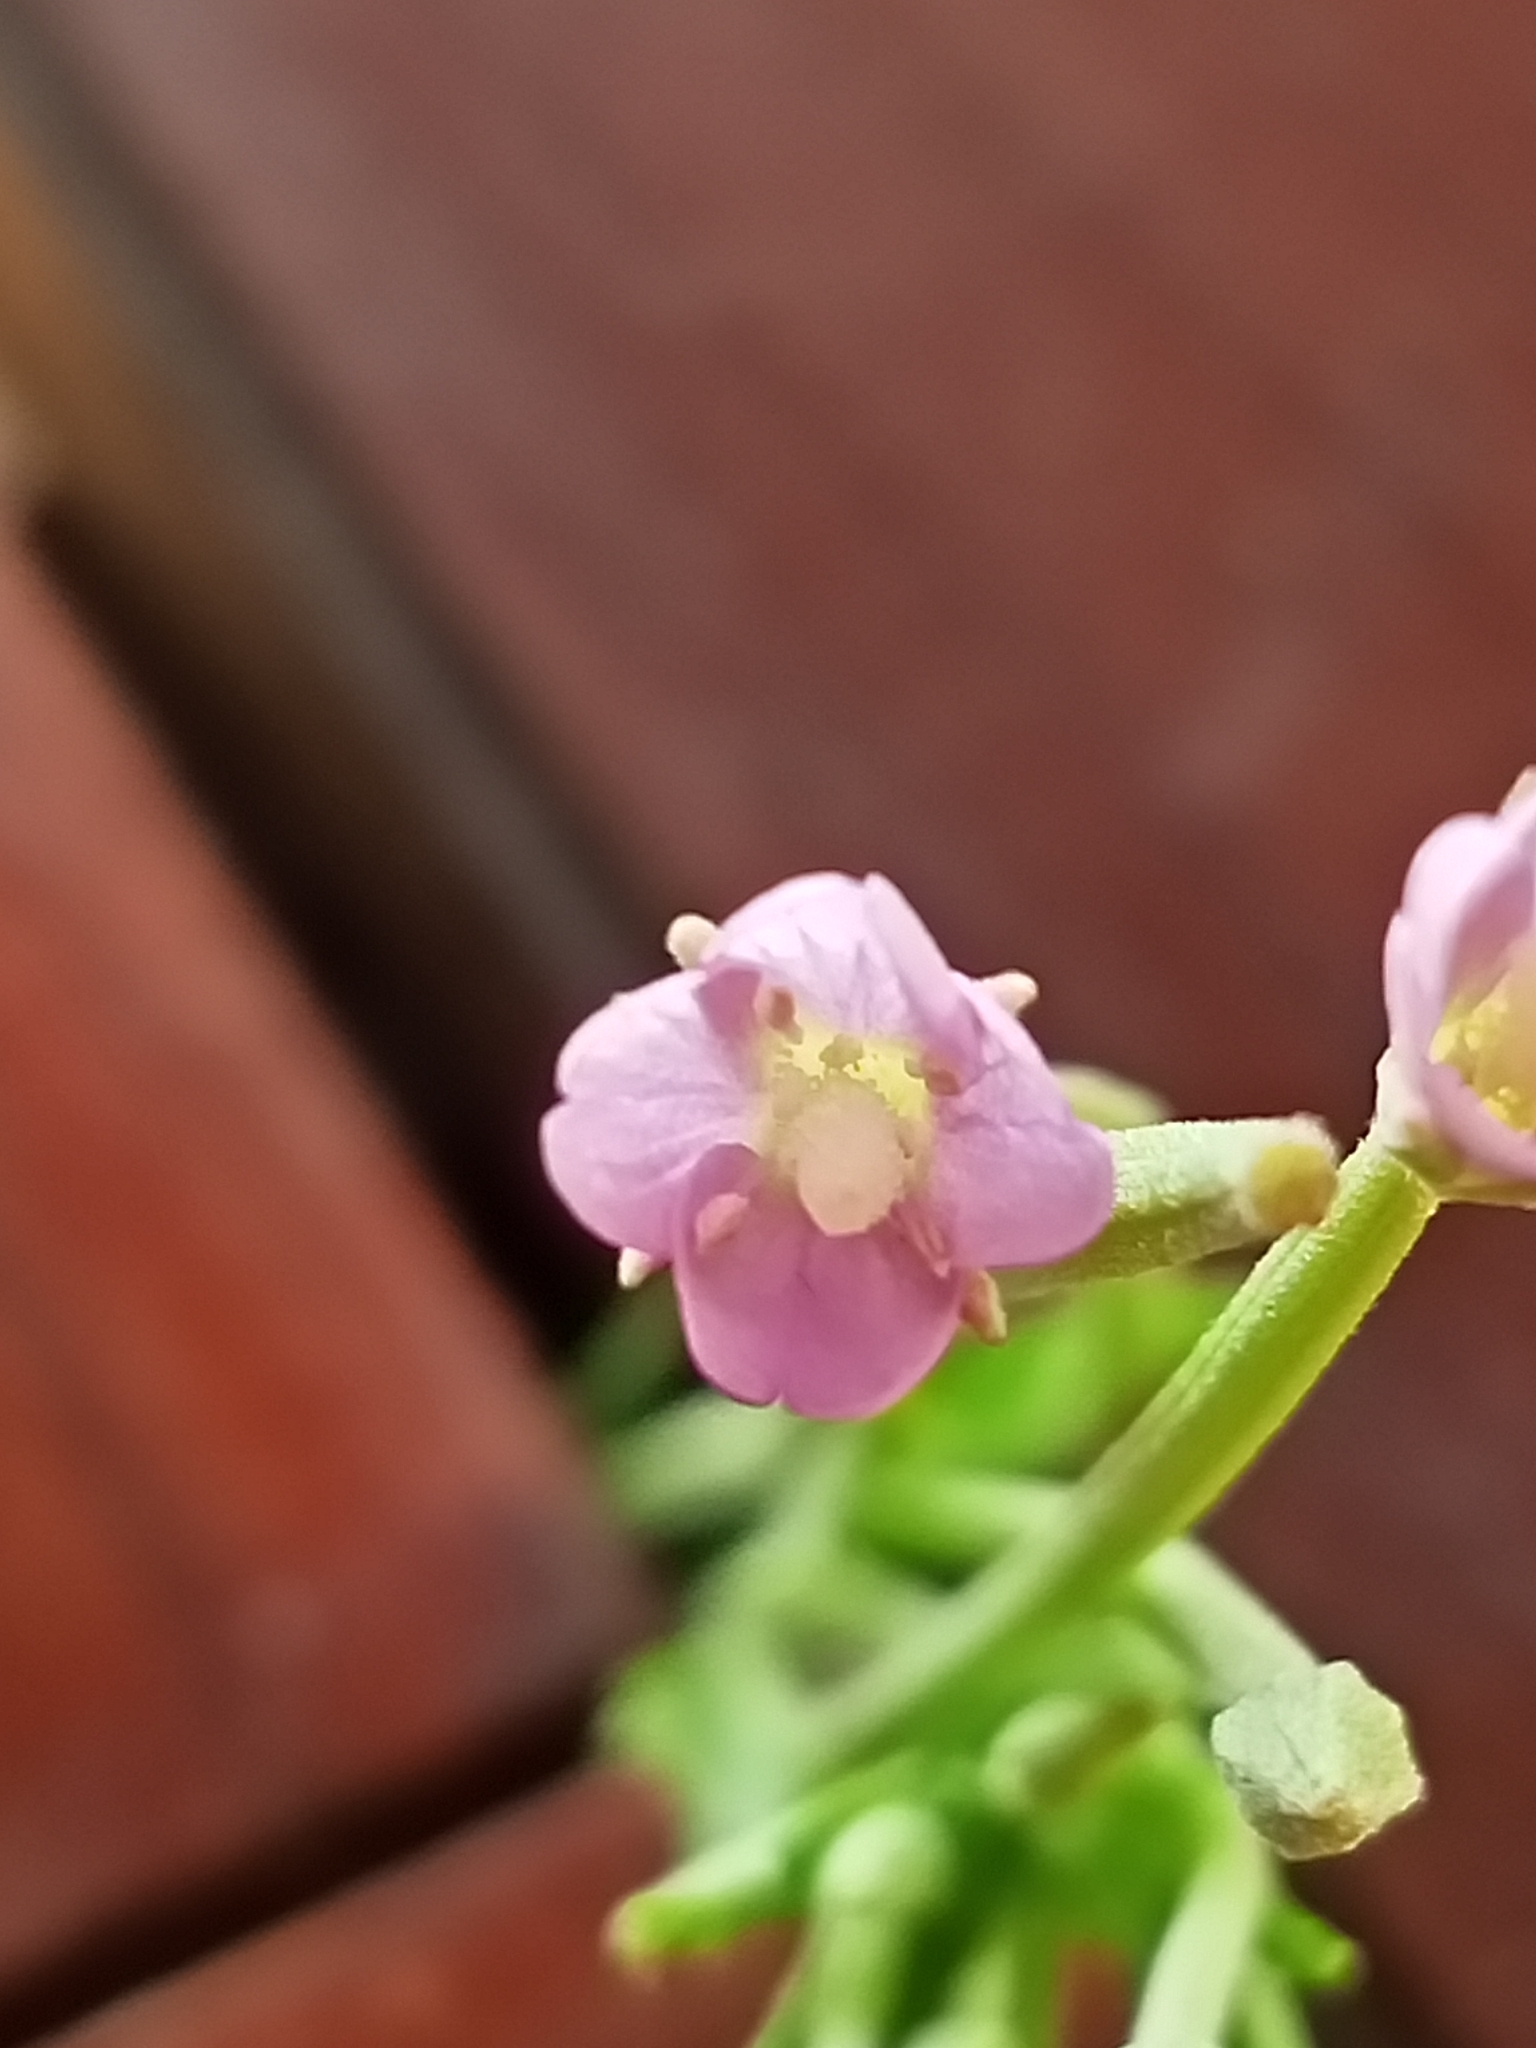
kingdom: Plantae
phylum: Tracheophyta
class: Magnoliopsida
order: Myrtales
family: Onagraceae
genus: Epilobium
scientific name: Epilobium tetragonum
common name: Square-stemmed willowherb
